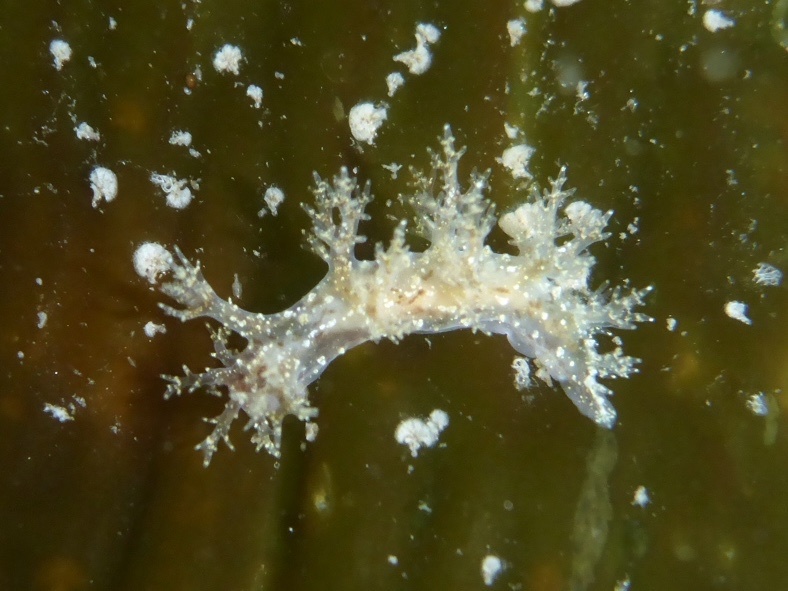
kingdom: Animalia
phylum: Mollusca
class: Gastropoda
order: Nudibranchia
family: Dendronotidae
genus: Dendronotus
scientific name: Dendronotus venustus
